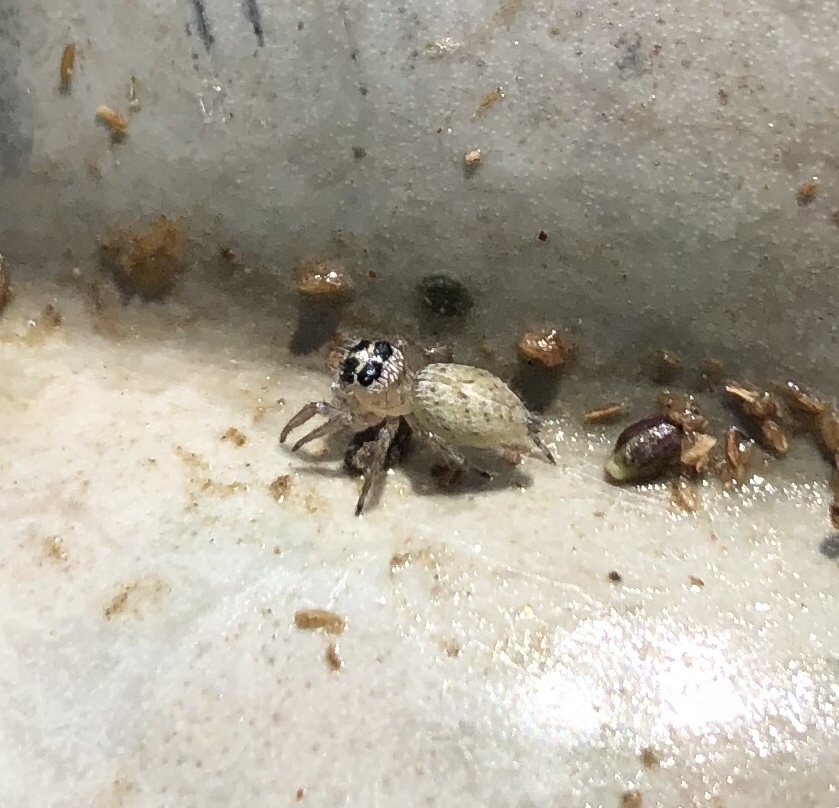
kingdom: Animalia
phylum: Arthropoda
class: Arachnida
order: Araneae
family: Salticidae
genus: Colonus
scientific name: Colonus hesperus
